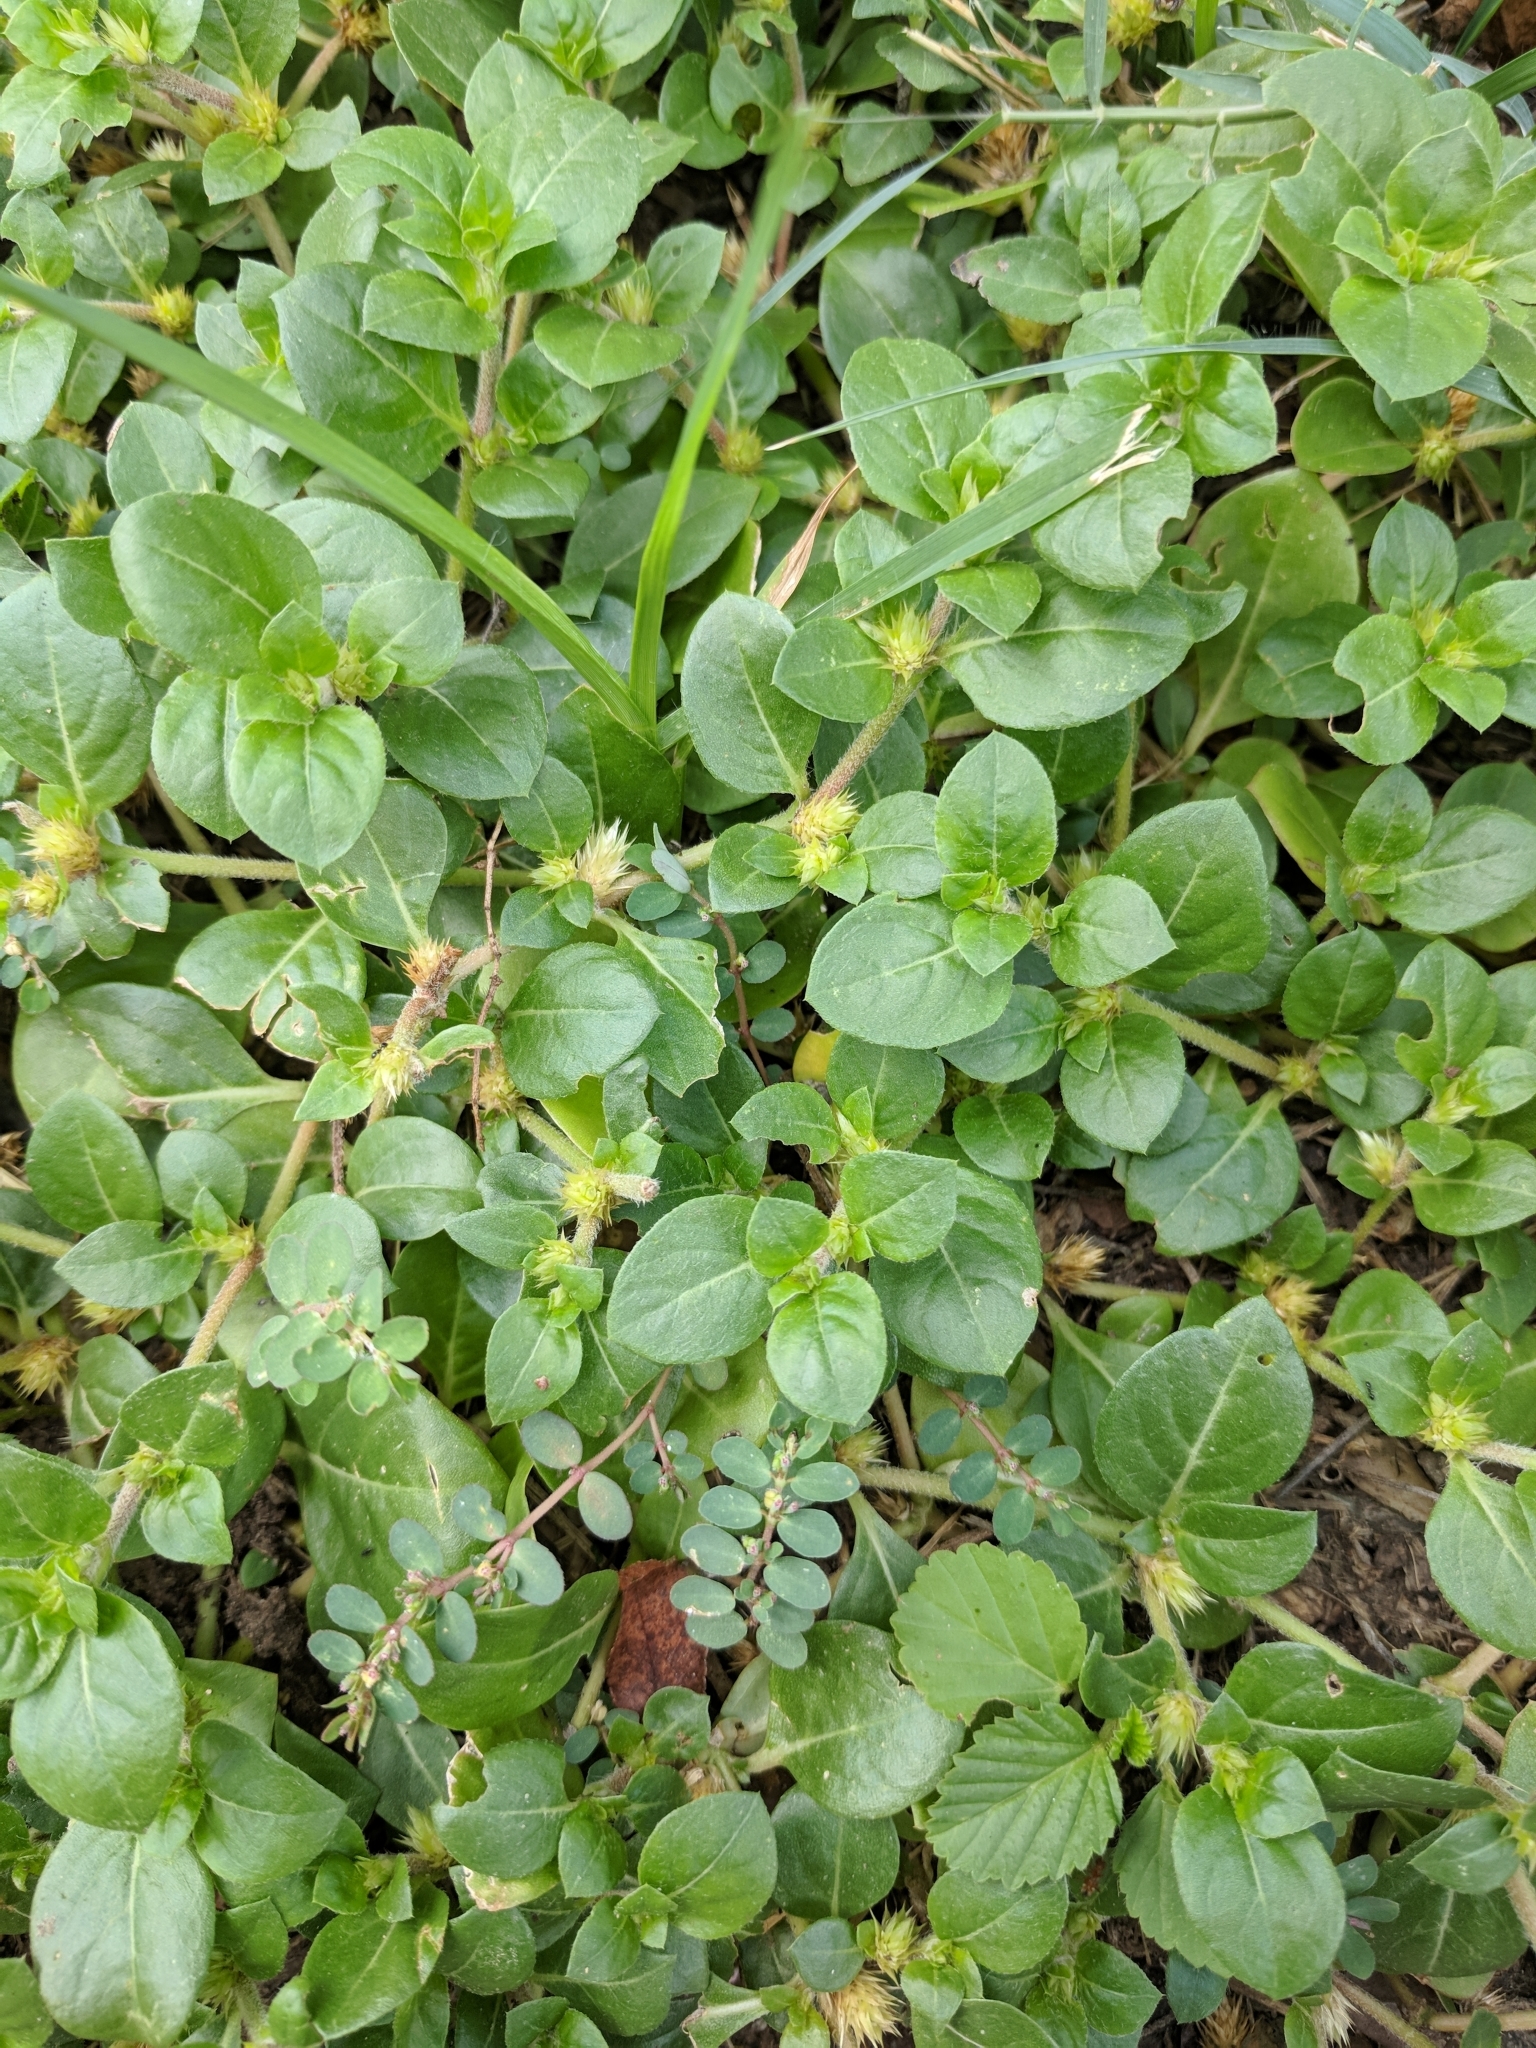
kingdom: Plantae
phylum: Tracheophyta
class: Magnoliopsida
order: Caryophyllales
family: Amaranthaceae
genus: Alternanthera
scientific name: Alternanthera pungens
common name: Khakiweed
